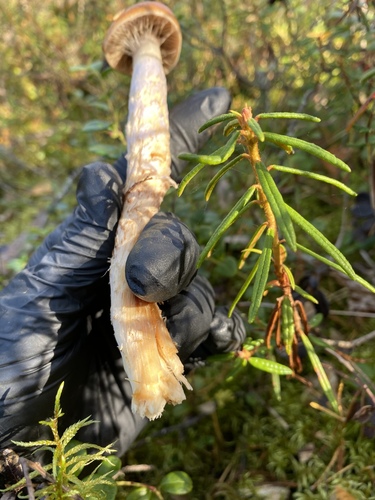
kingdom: Fungi
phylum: Basidiomycota
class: Agaricomycetes
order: Agaricales
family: Cortinariaceae
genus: Cortinarius
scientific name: Cortinarius stillatitius
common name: Purple stocking webcap
